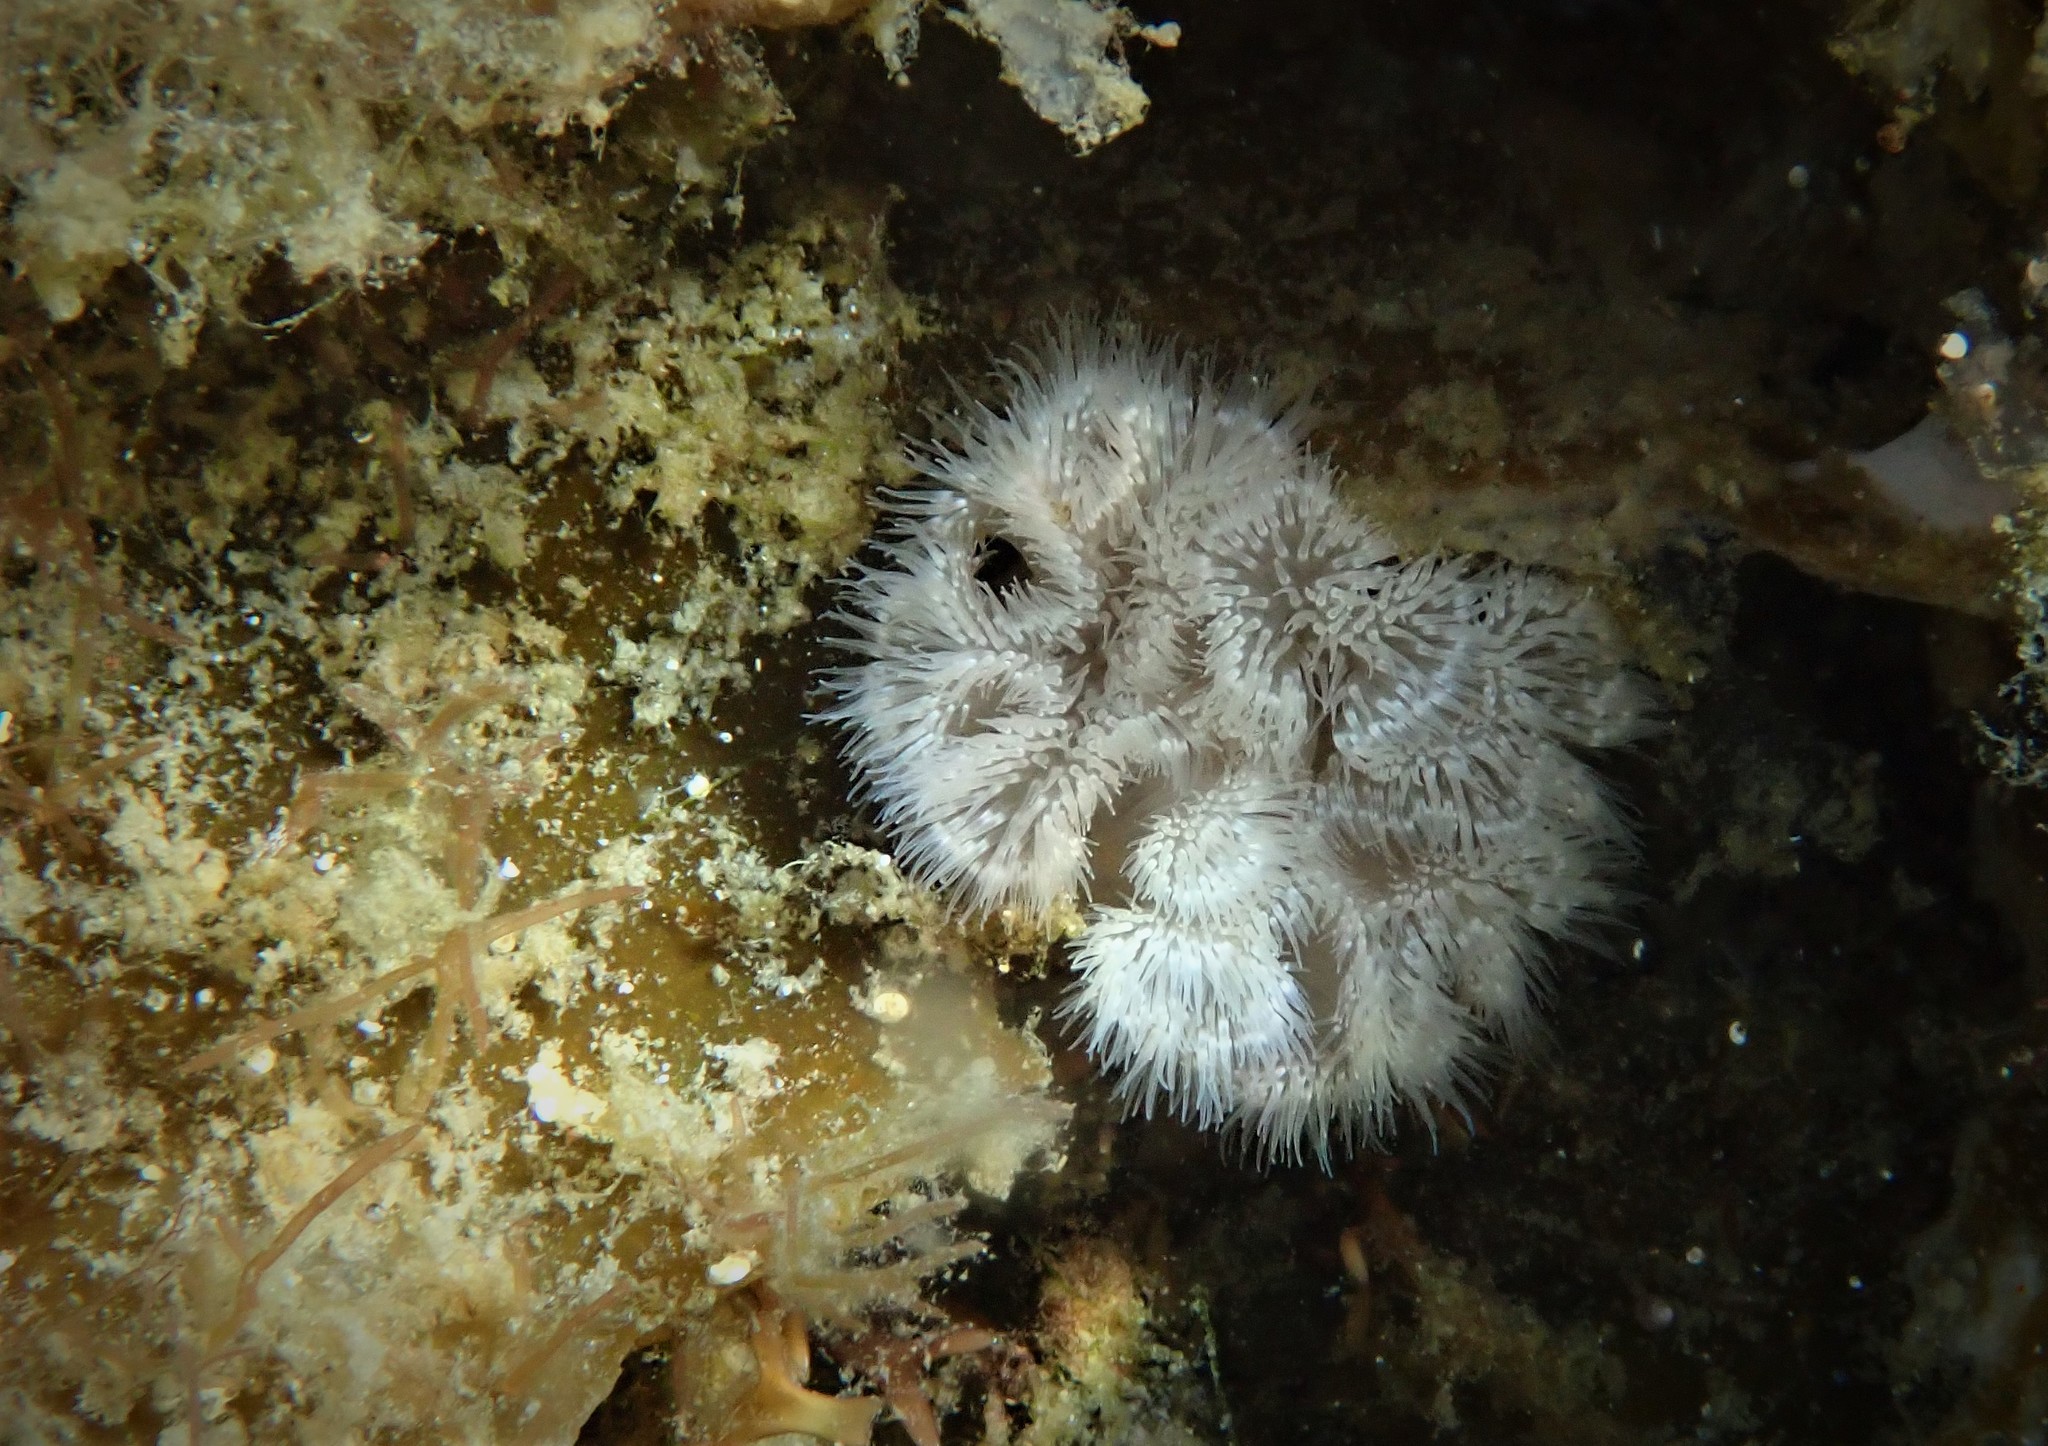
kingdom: Animalia
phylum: Cnidaria
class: Anthozoa
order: Actiniaria
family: Metridiidae
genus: Metridium
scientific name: Metridium senile
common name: Clonal plumose anemone
